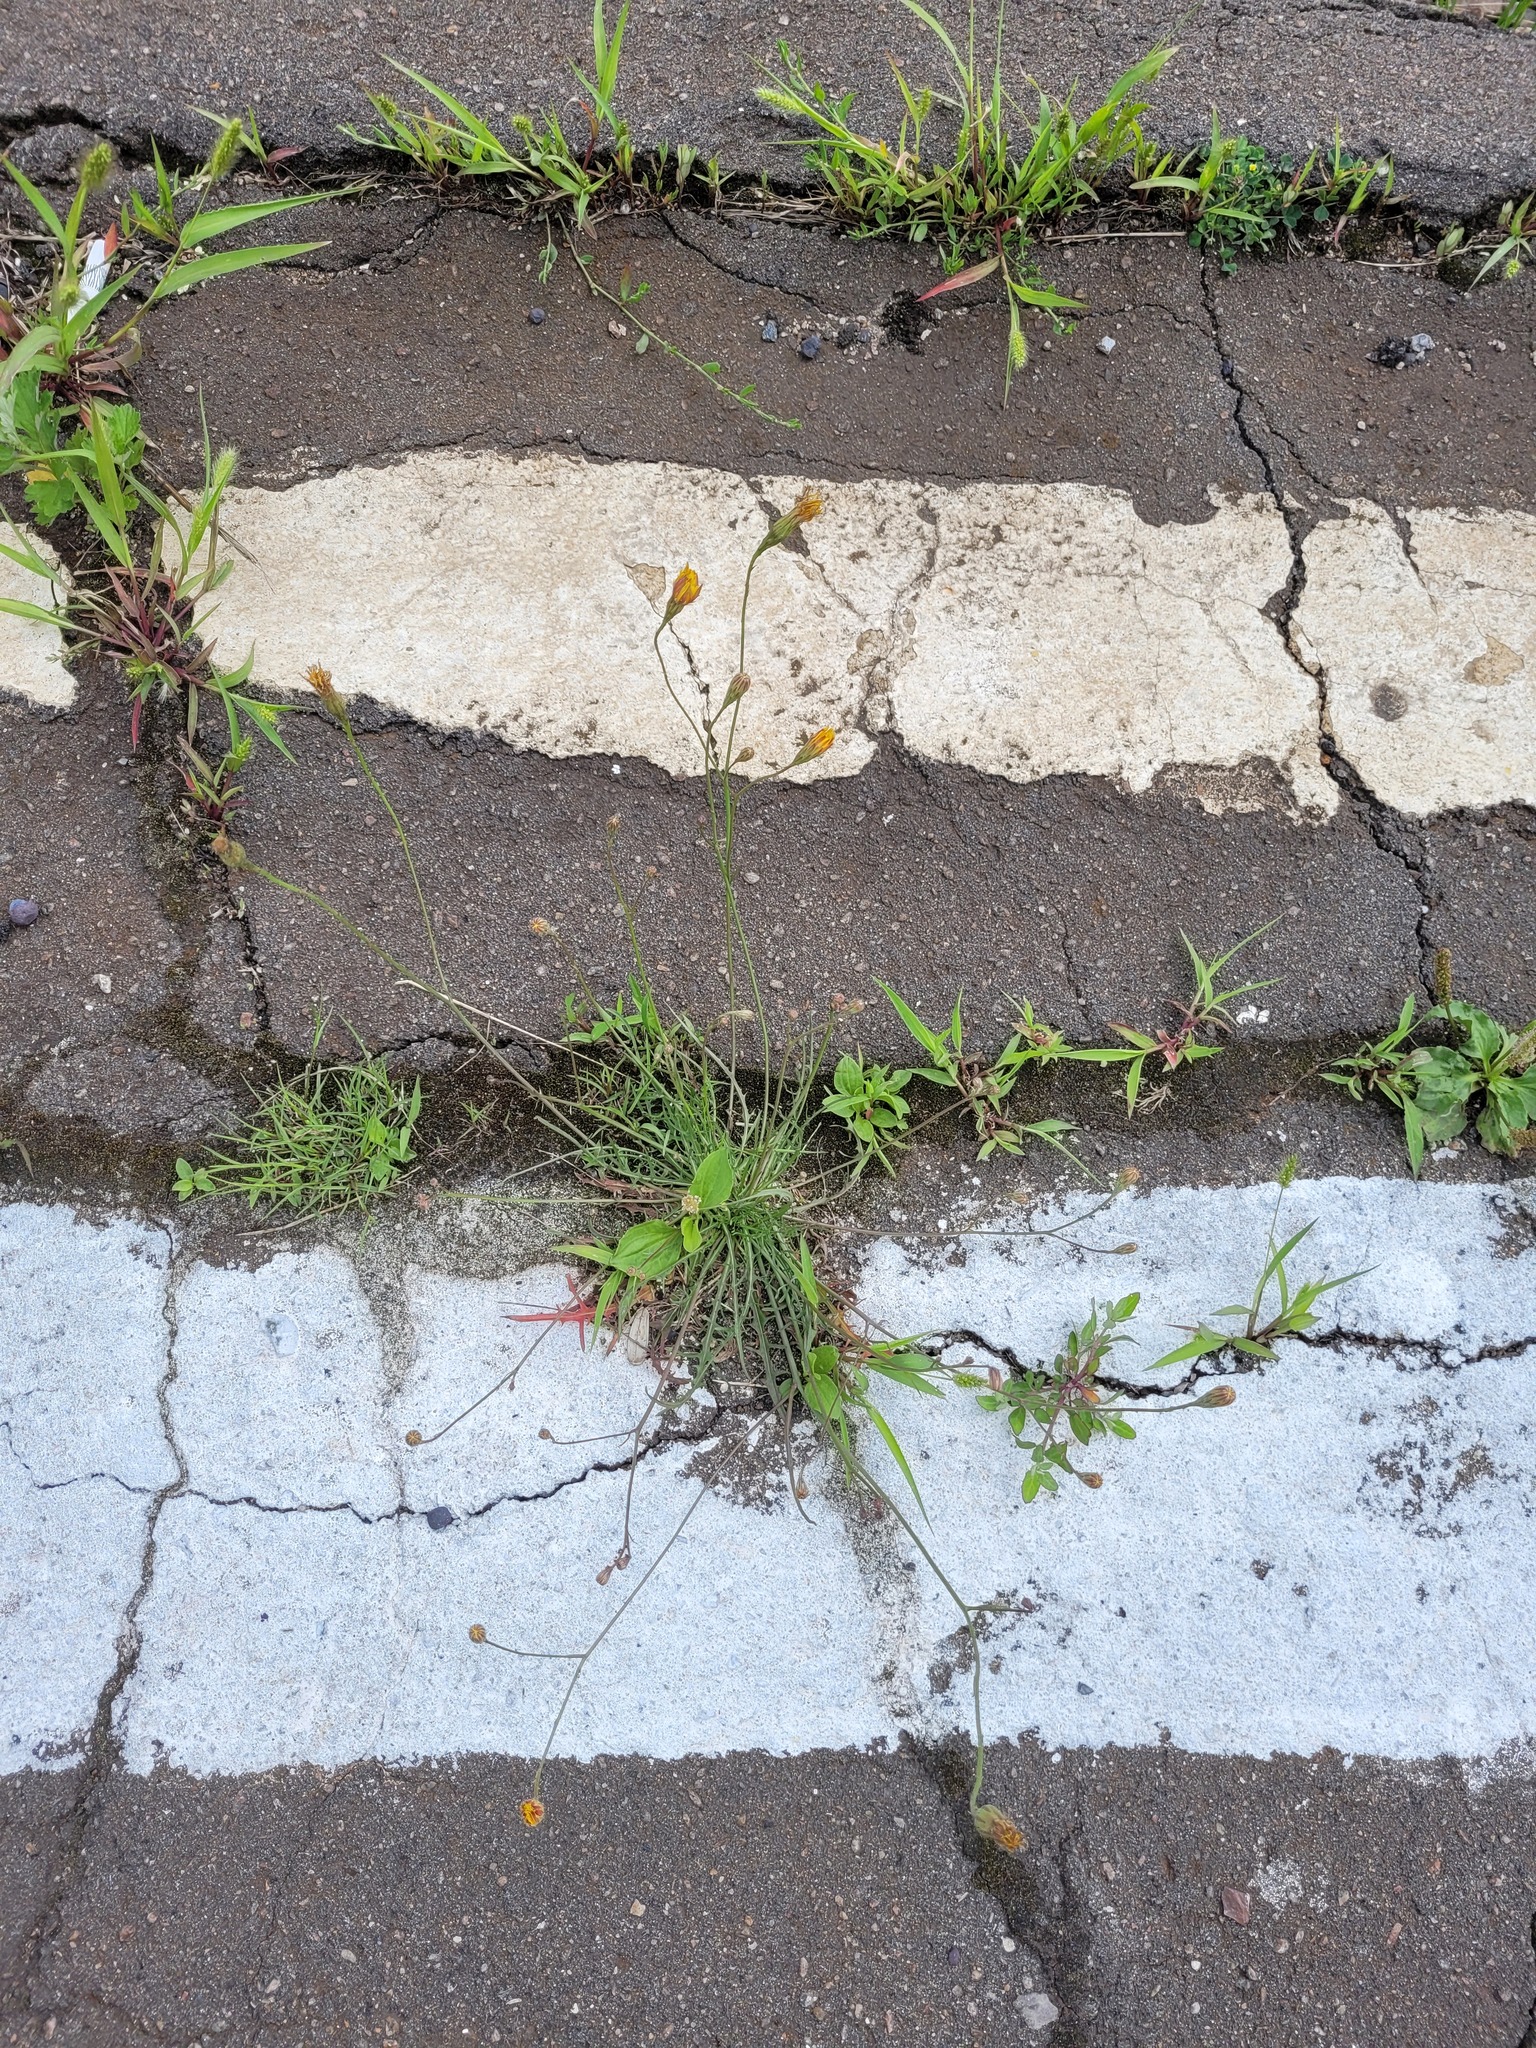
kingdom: Plantae
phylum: Tracheophyta
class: Magnoliopsida
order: Asterales
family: Asteraceae
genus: Scorzoneroides
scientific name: Scorzoneroides autumnalis
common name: Autumn hawkbit
